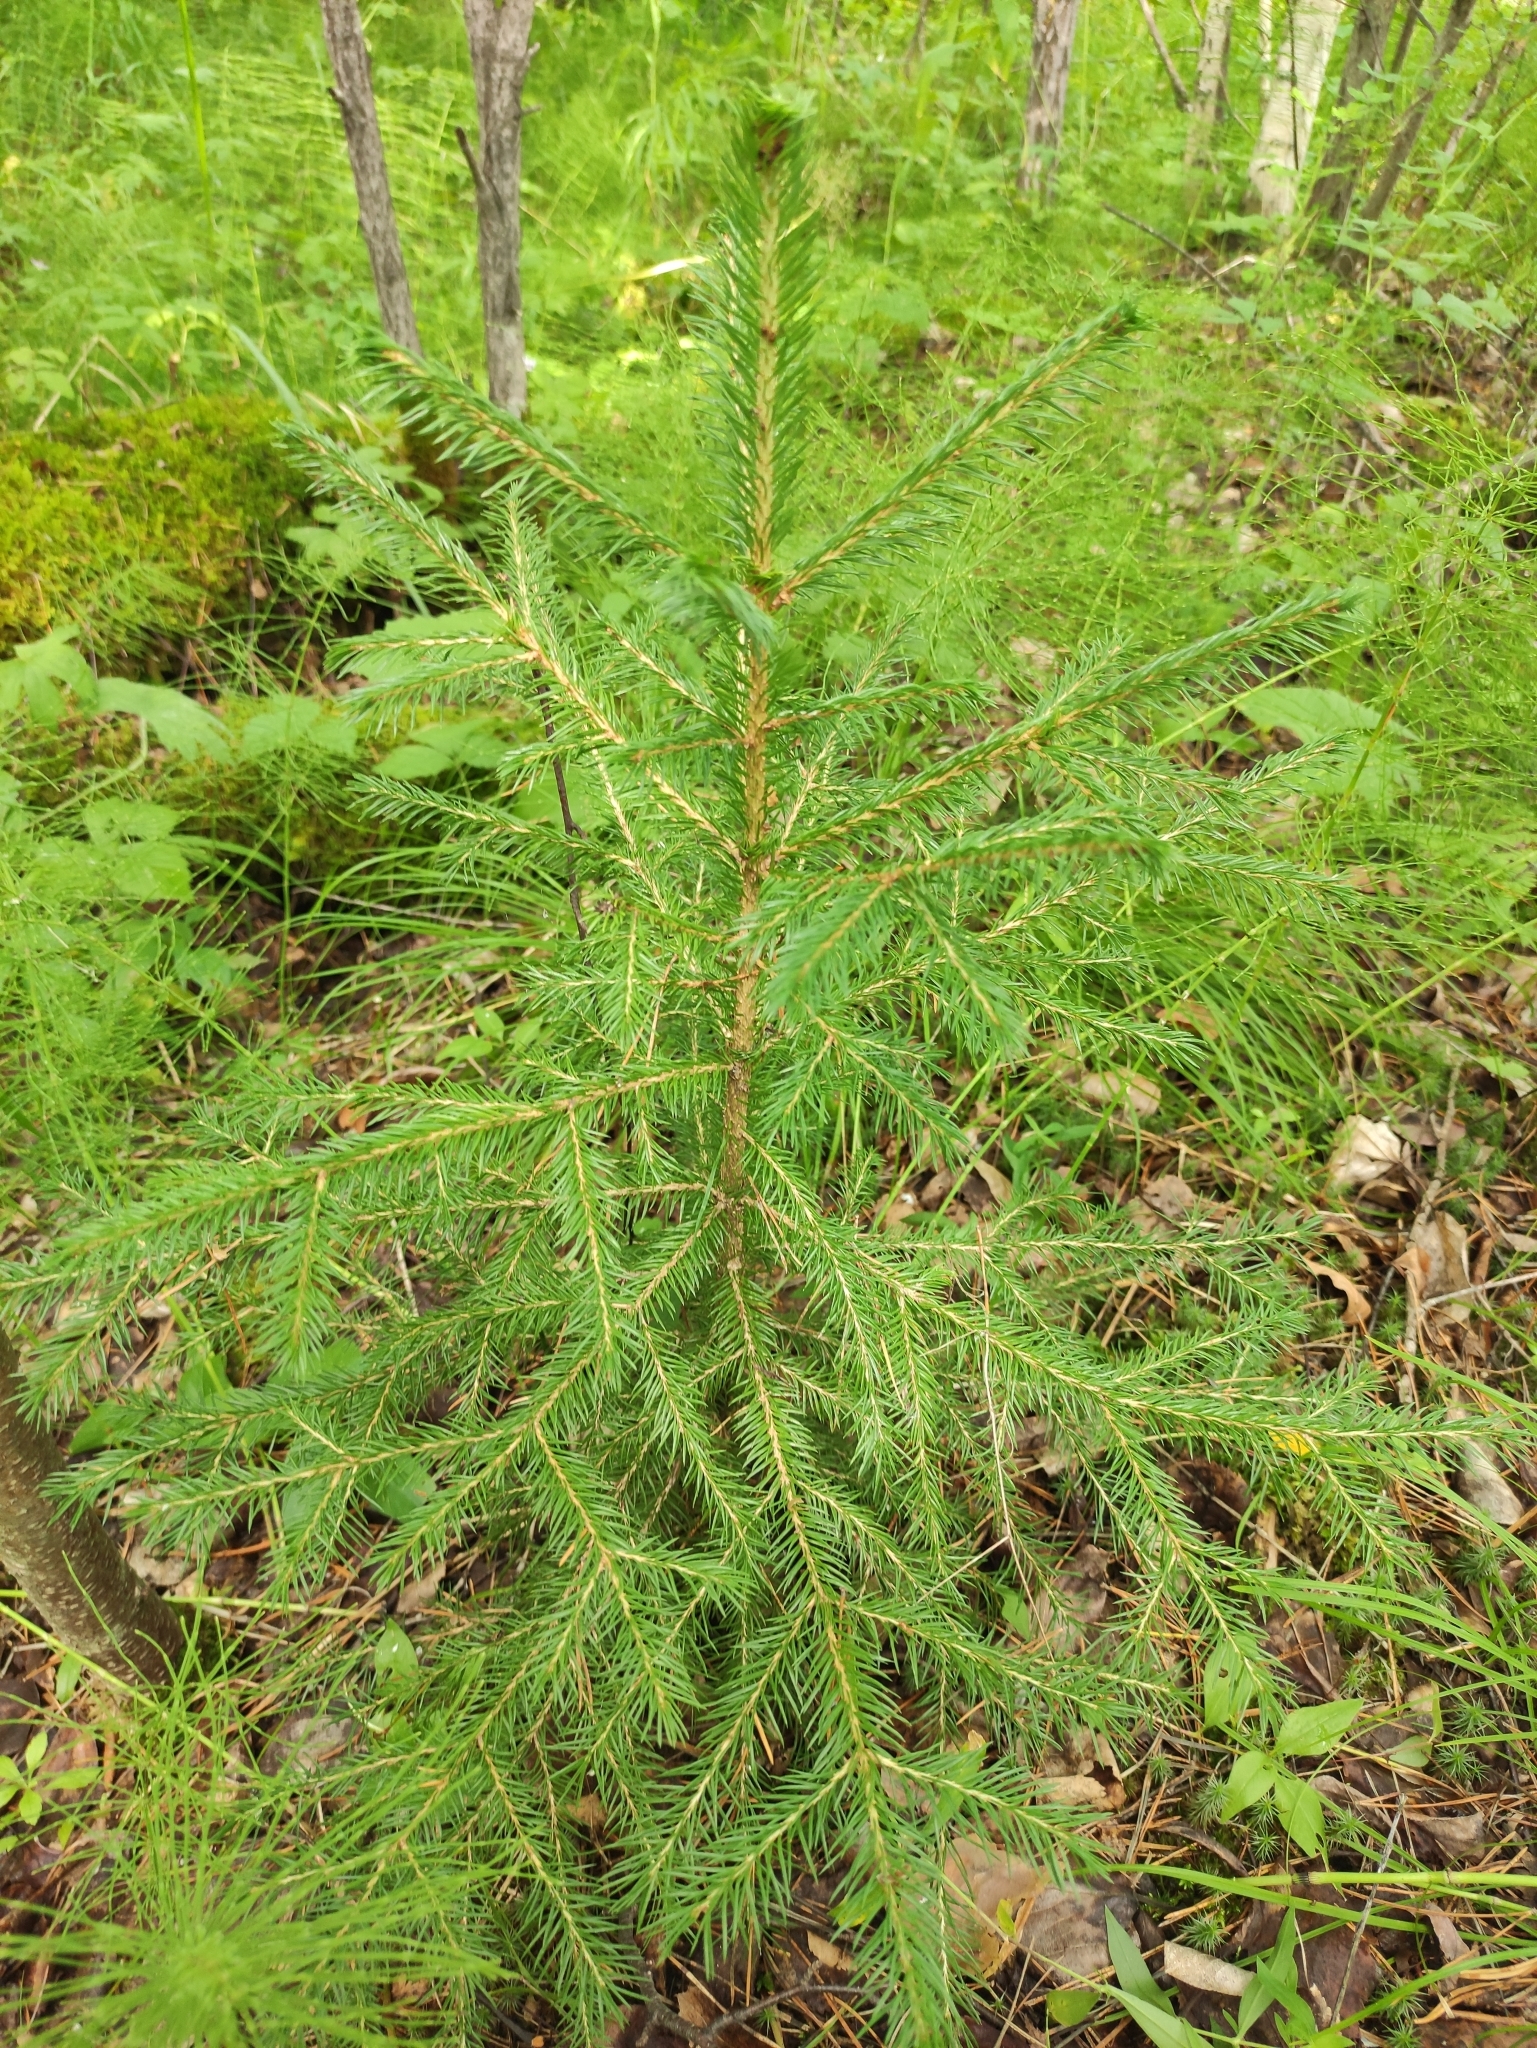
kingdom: Plantae
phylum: Tracheophyta
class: Pinopsida
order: Pinales
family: Pinaceae
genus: Picea
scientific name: Picea obovata
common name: Siberian spruce
